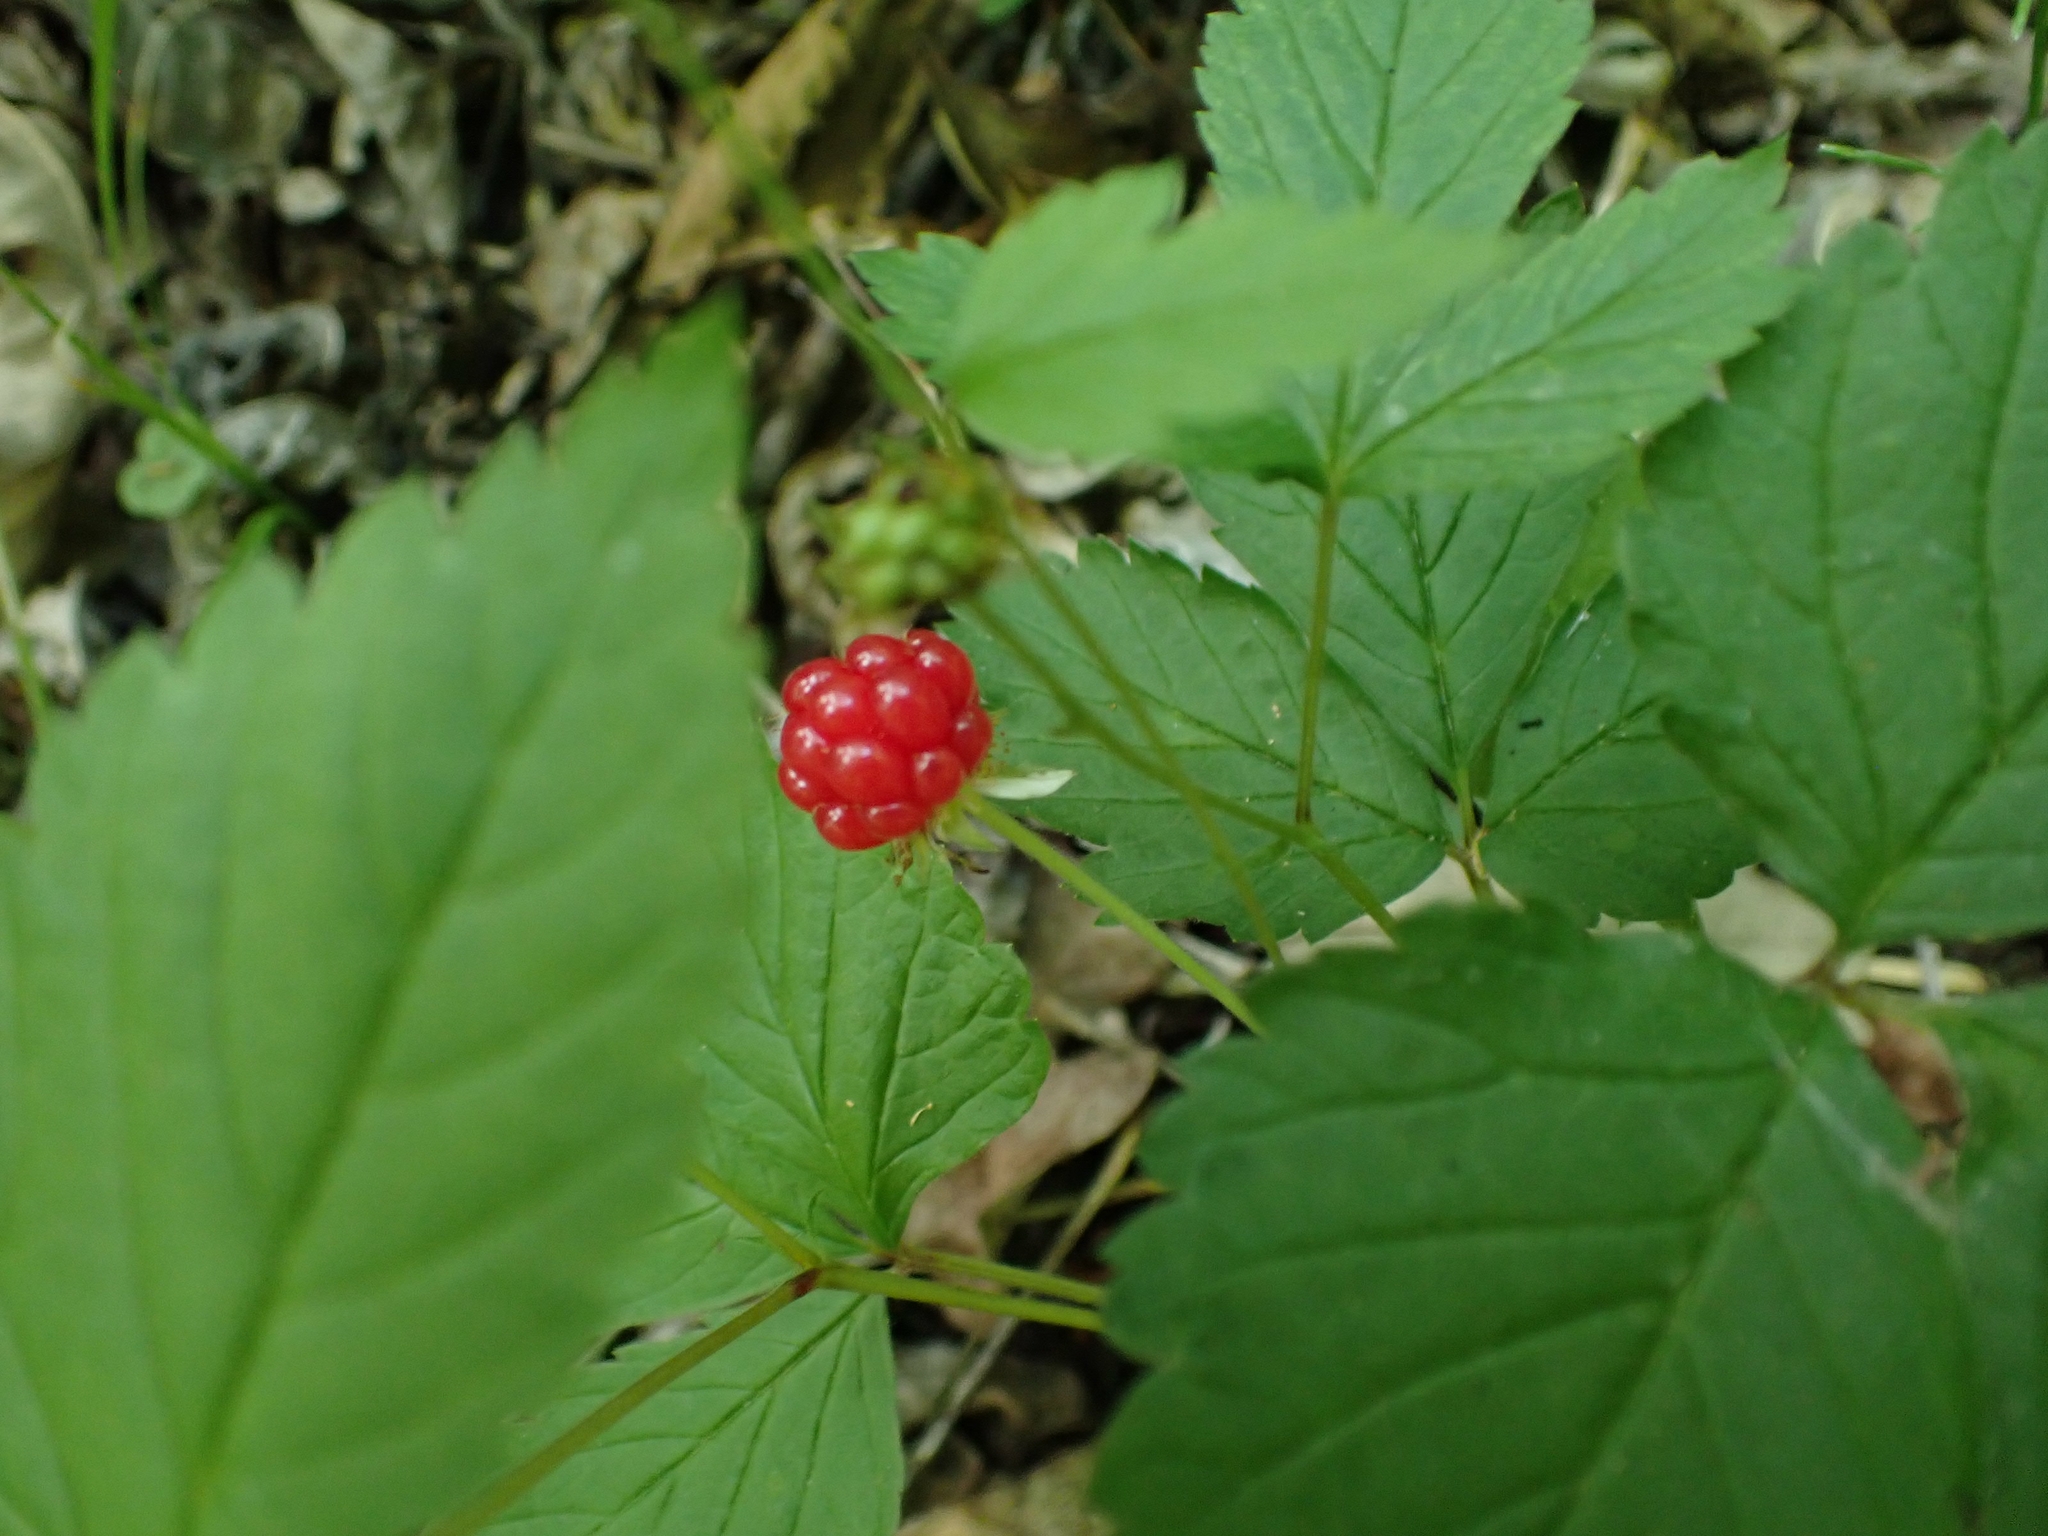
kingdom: Plantae
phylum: Tracheophyta
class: Magnoliopsida
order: Rosales
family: Rosaceae
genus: Rubus
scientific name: Rubus pubescens
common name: Dwarf raspberry
